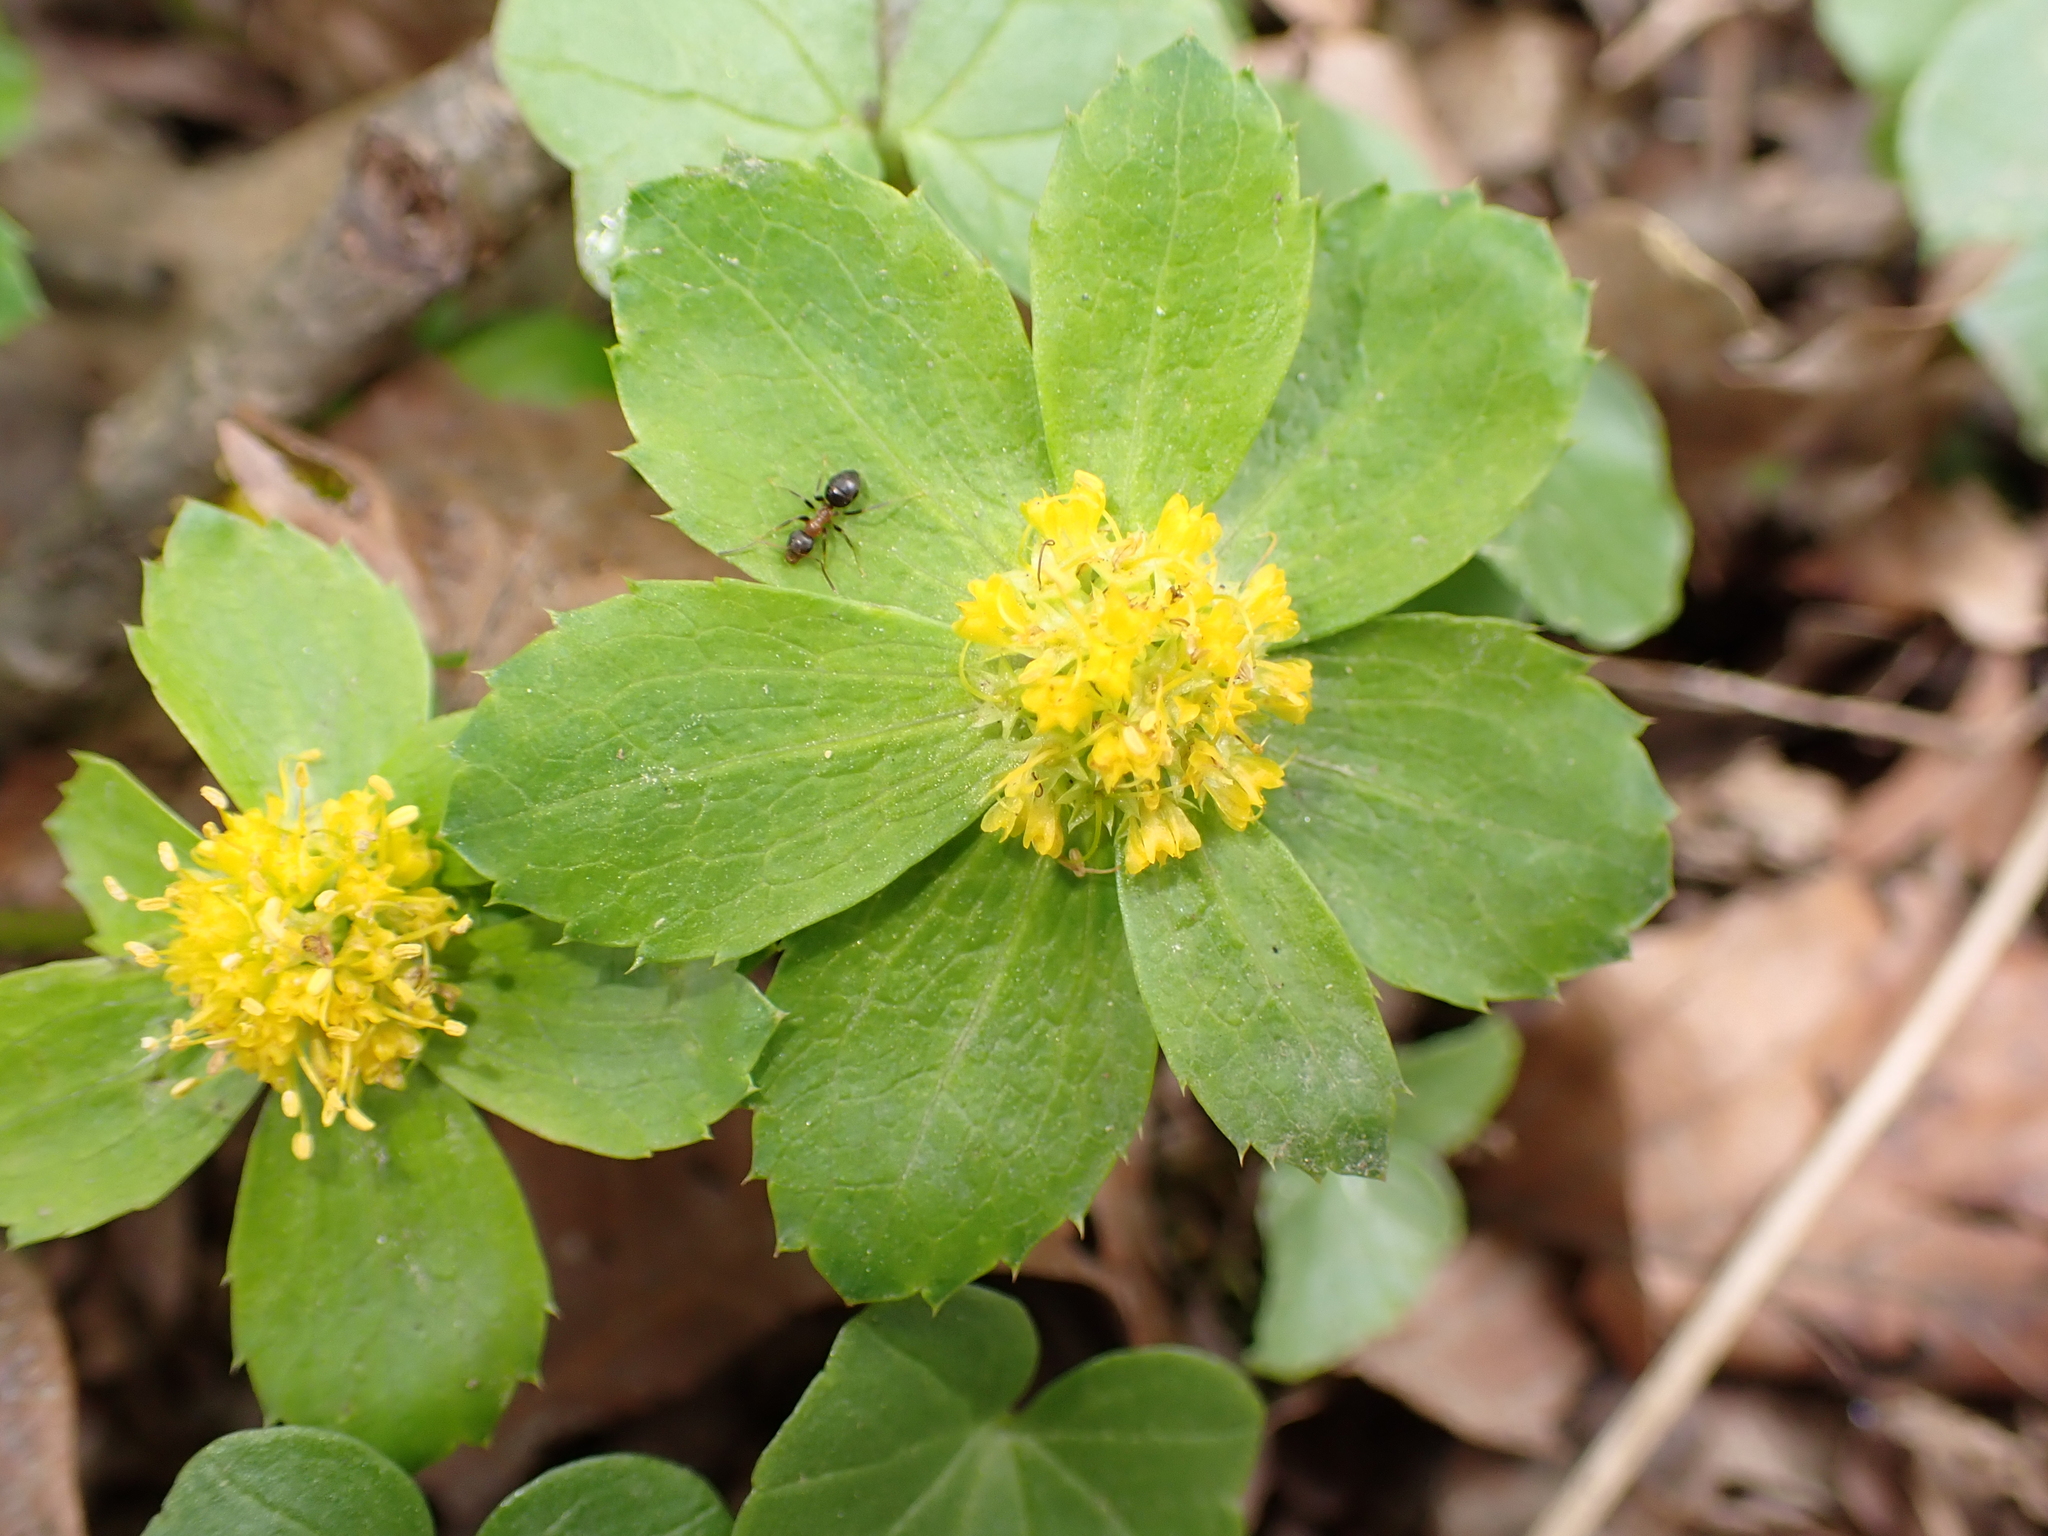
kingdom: Plantae
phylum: Tracheophyta
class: Magnoliopsida
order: Apiales
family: Apiaceae
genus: Sanicula
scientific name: Sanicula epipactis
